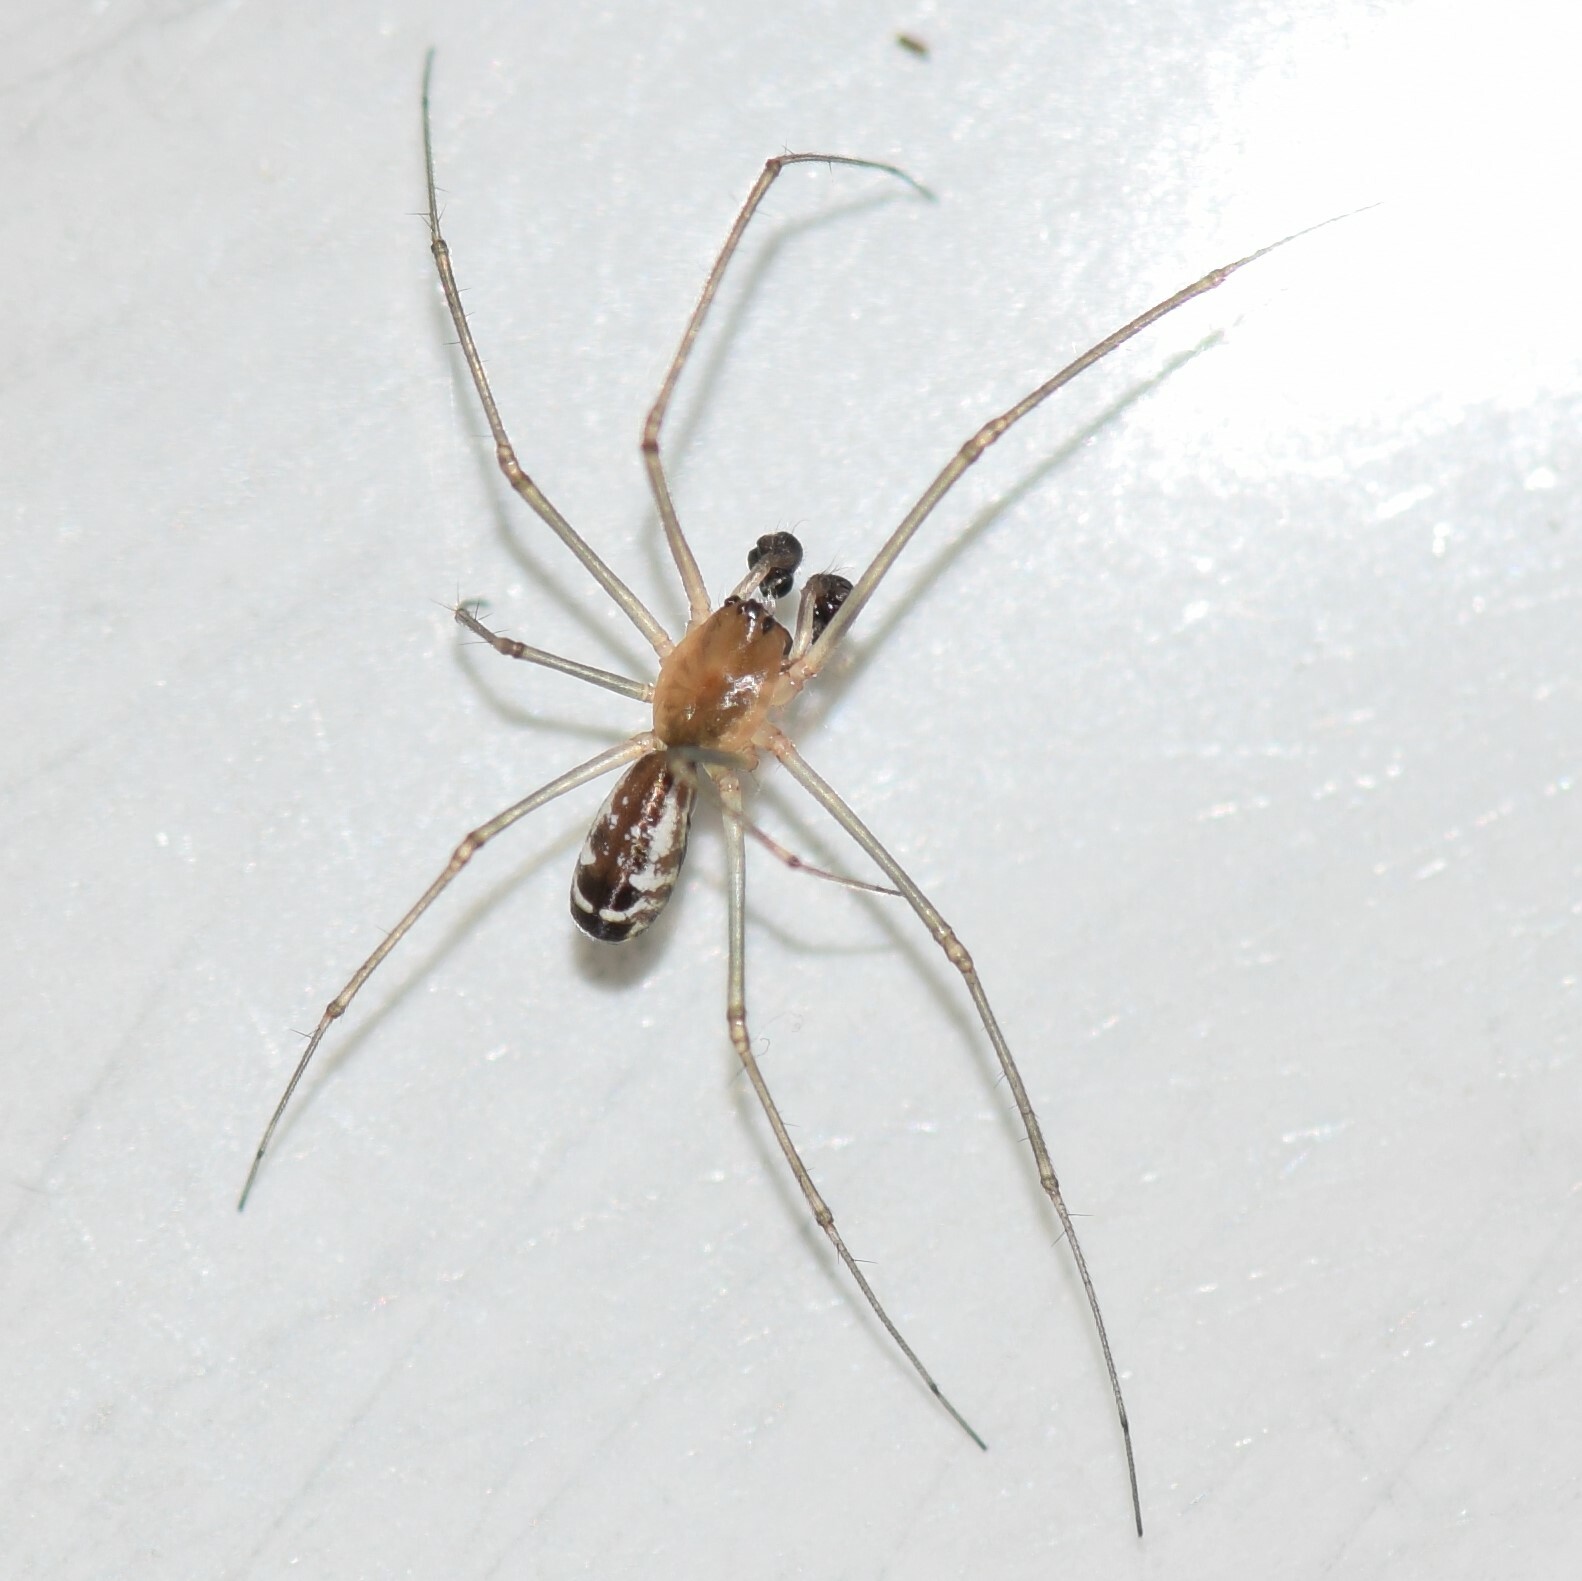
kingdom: Animalia
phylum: Arthropoda
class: Arachnida
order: Araneae
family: Linyphiidae
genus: Neriene
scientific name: Neriene radiata
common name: Filmy dome spider
